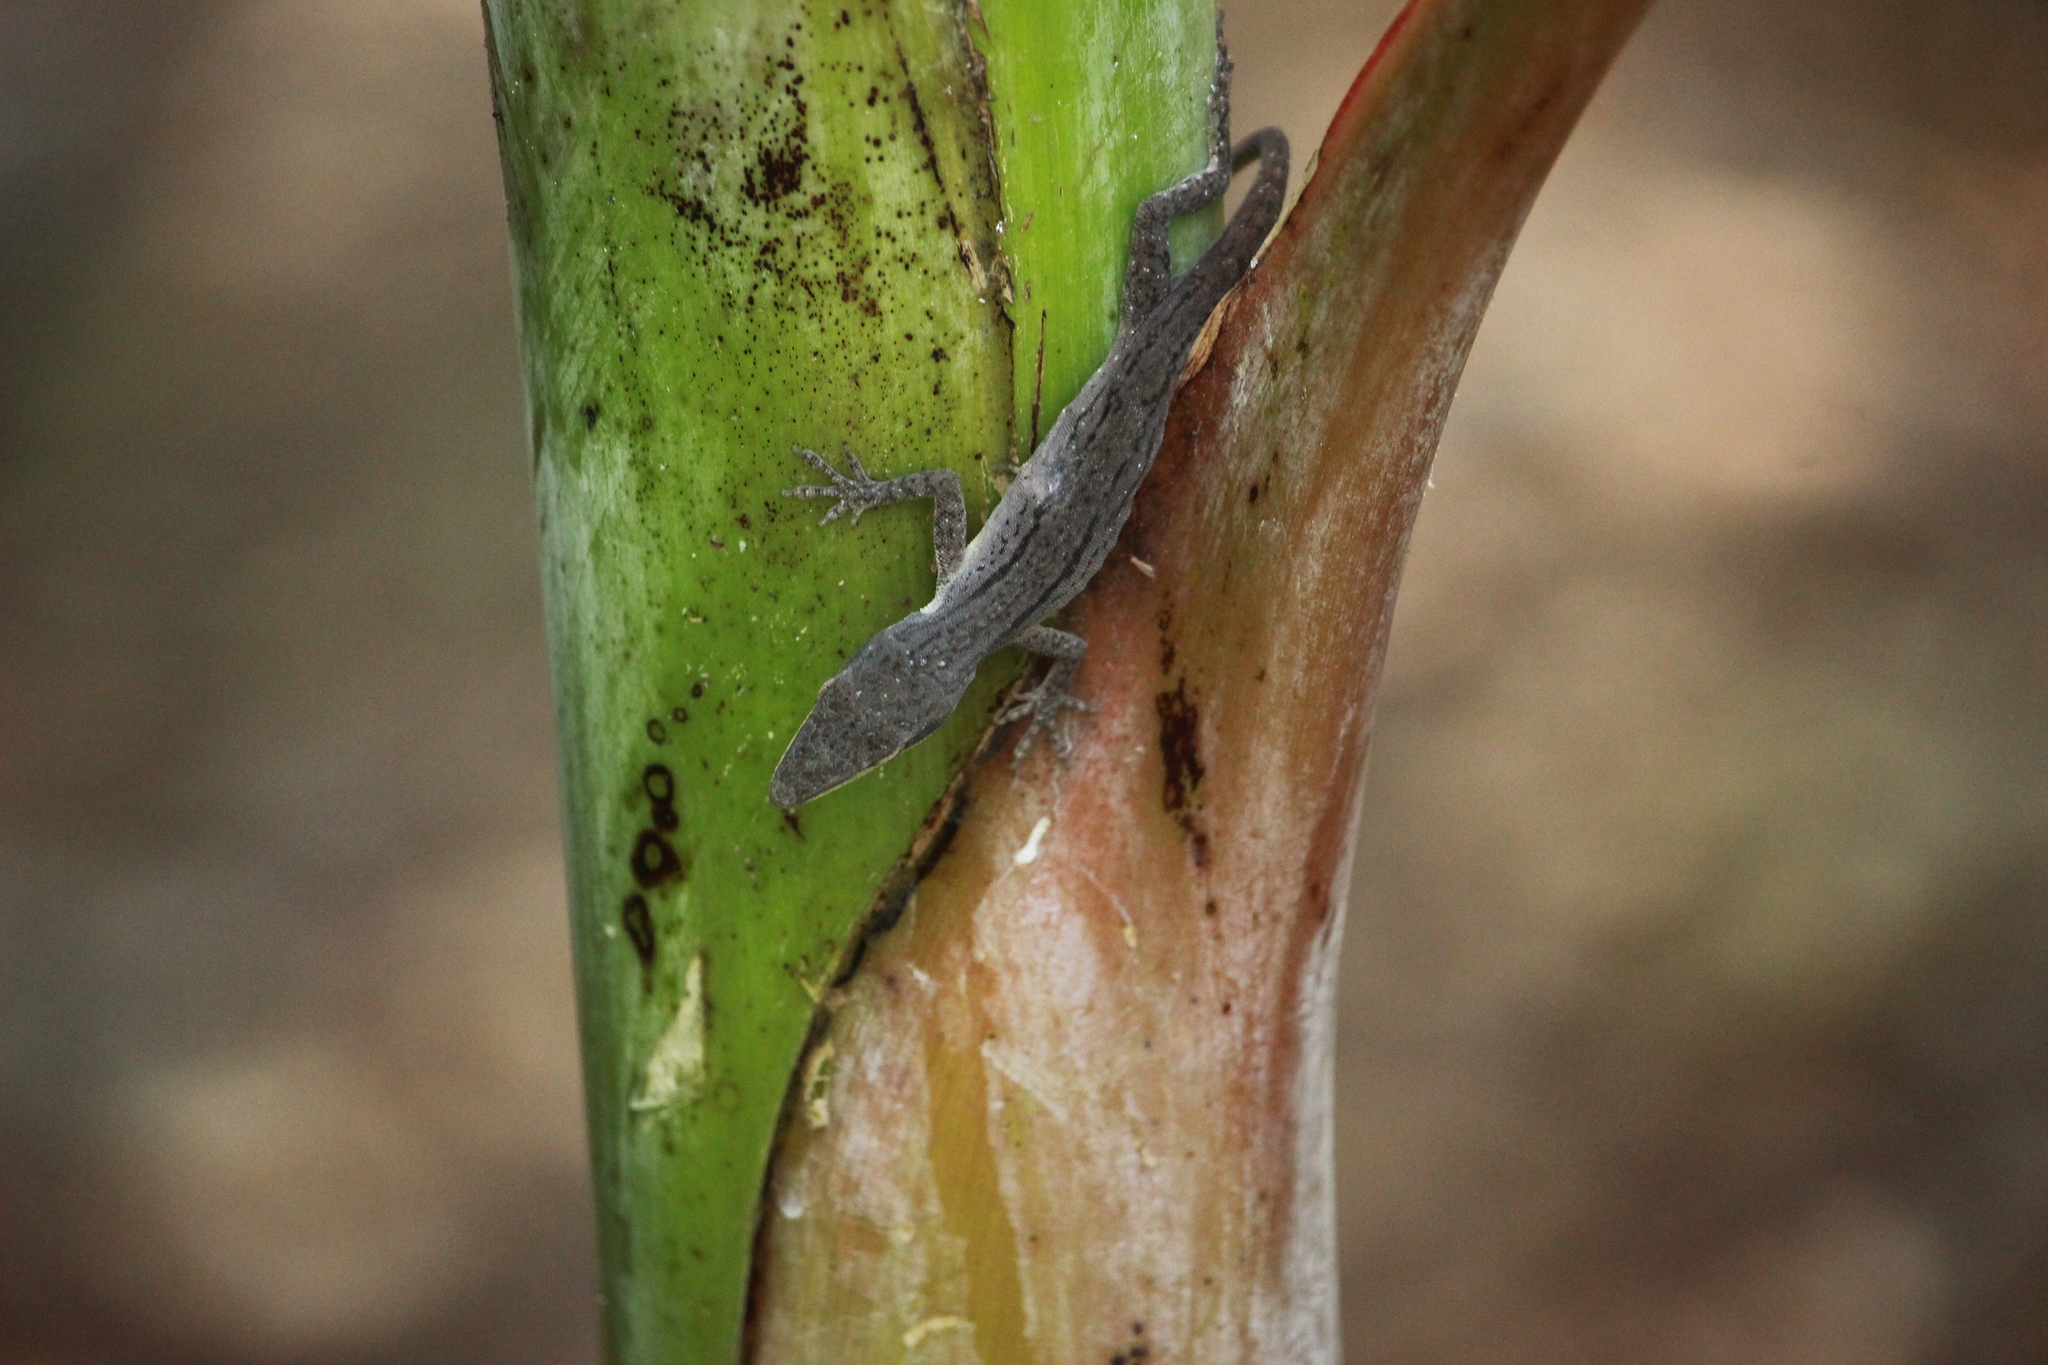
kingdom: Animalia
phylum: Chordata
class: Squamata
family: Dactyloidae
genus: Anolis
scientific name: Anolis carolinensis
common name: Green anole
